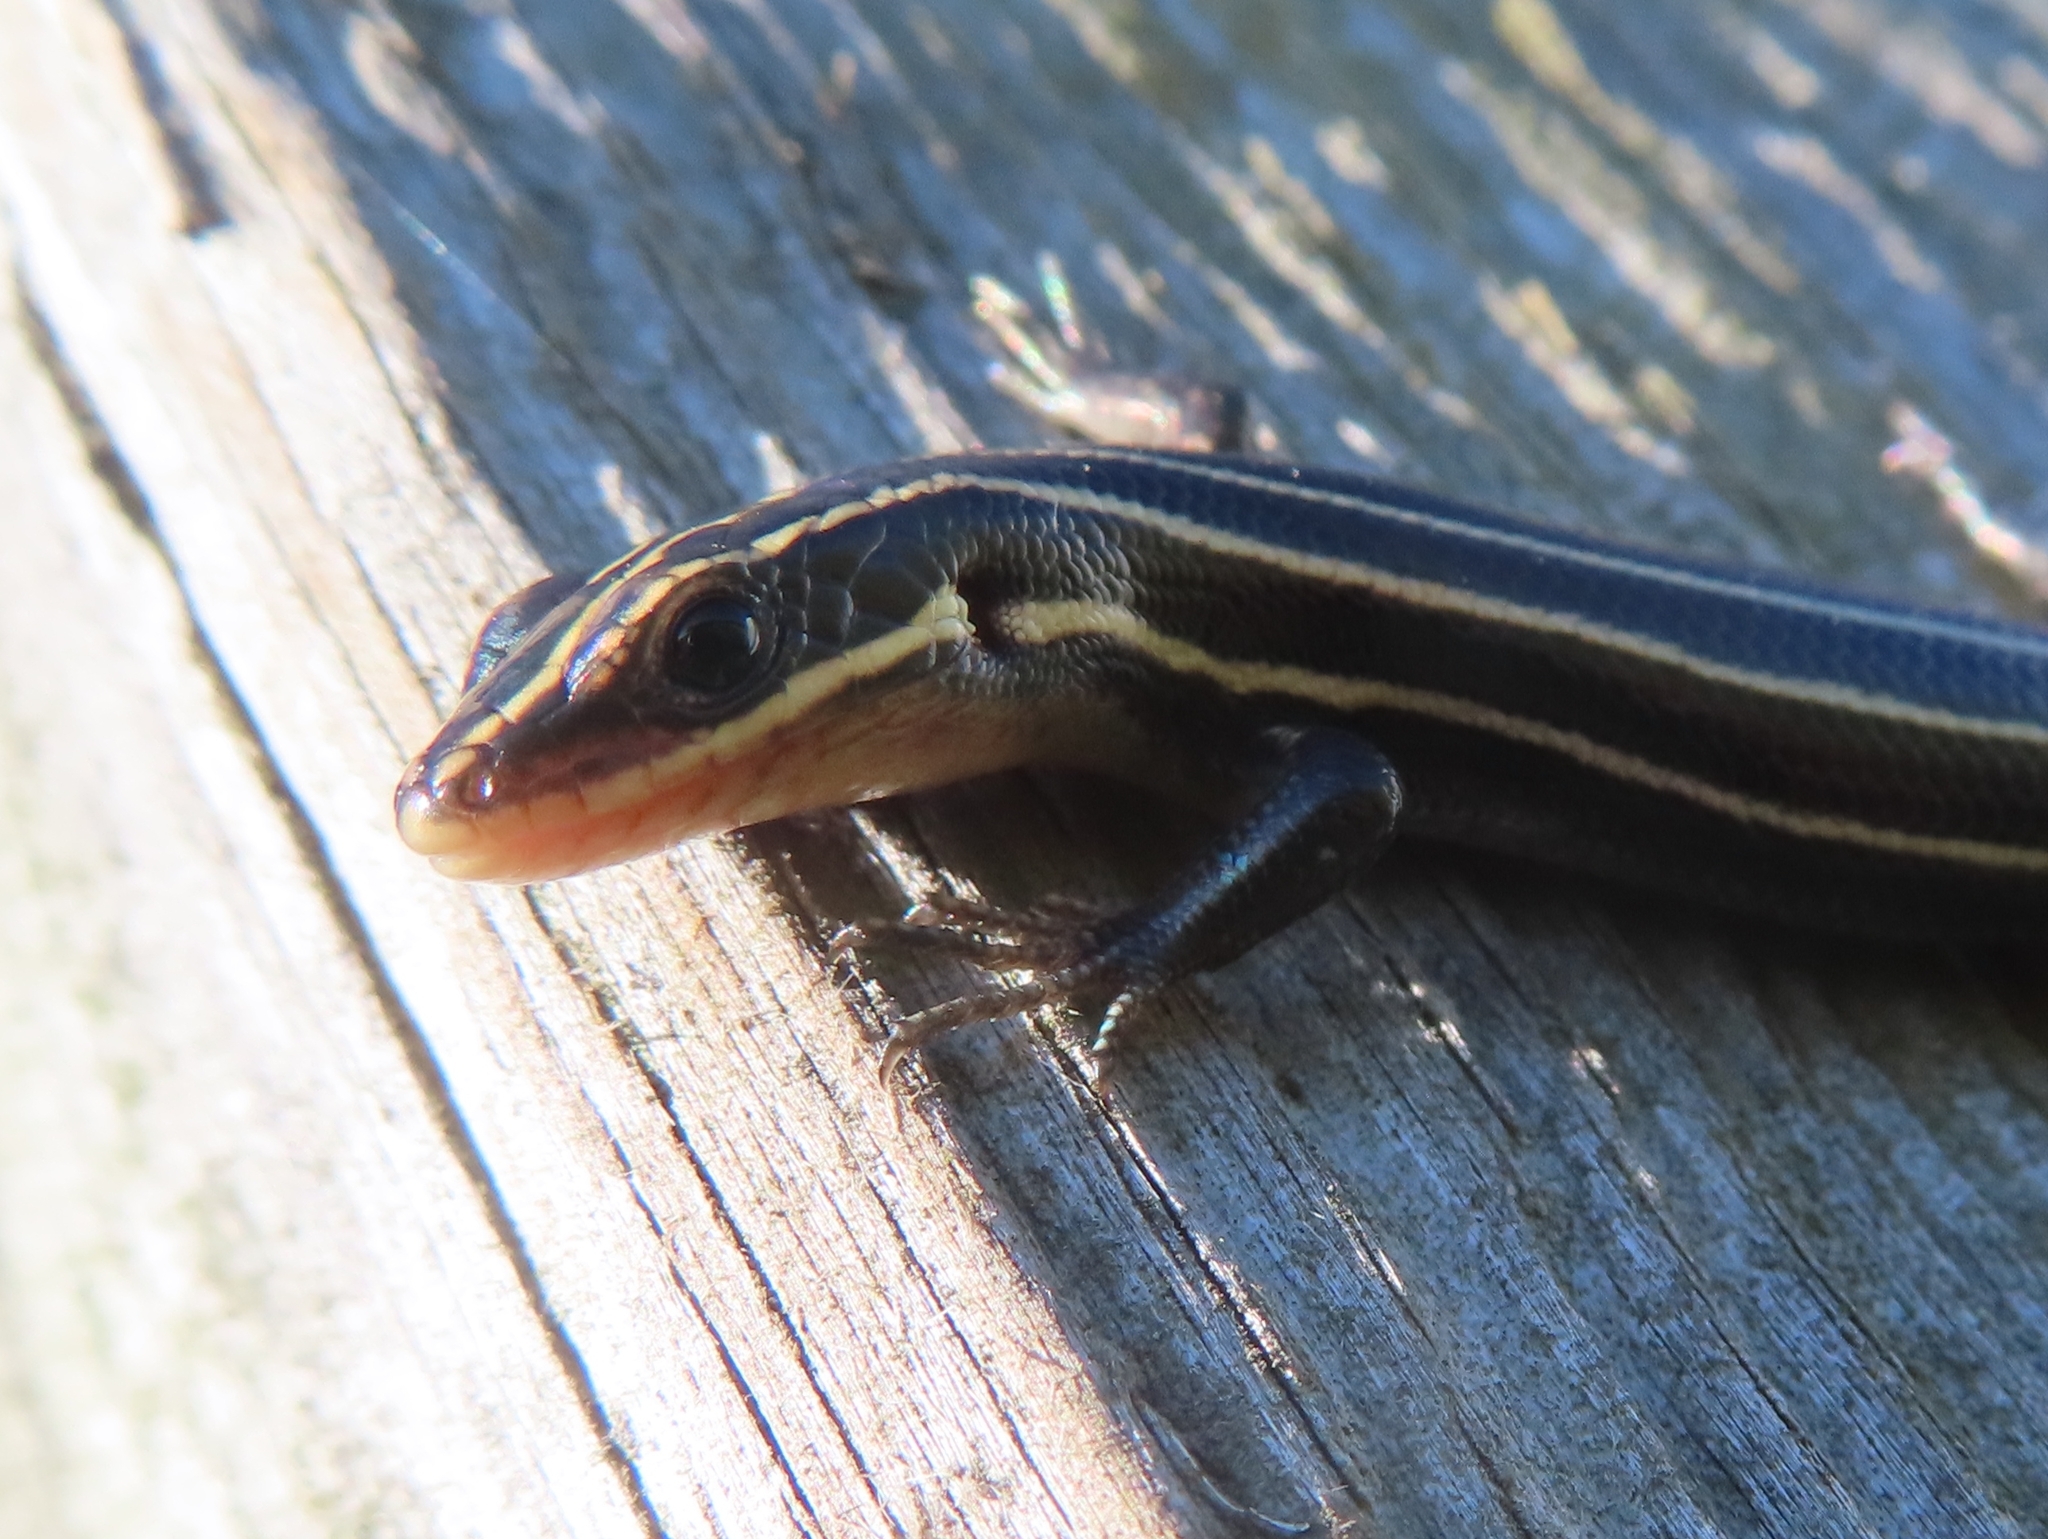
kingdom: Animalia
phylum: Chordata
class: Squamata
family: Scincidae
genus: Plestiodon
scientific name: Plestiodon fasciatus
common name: Five-lined skink
